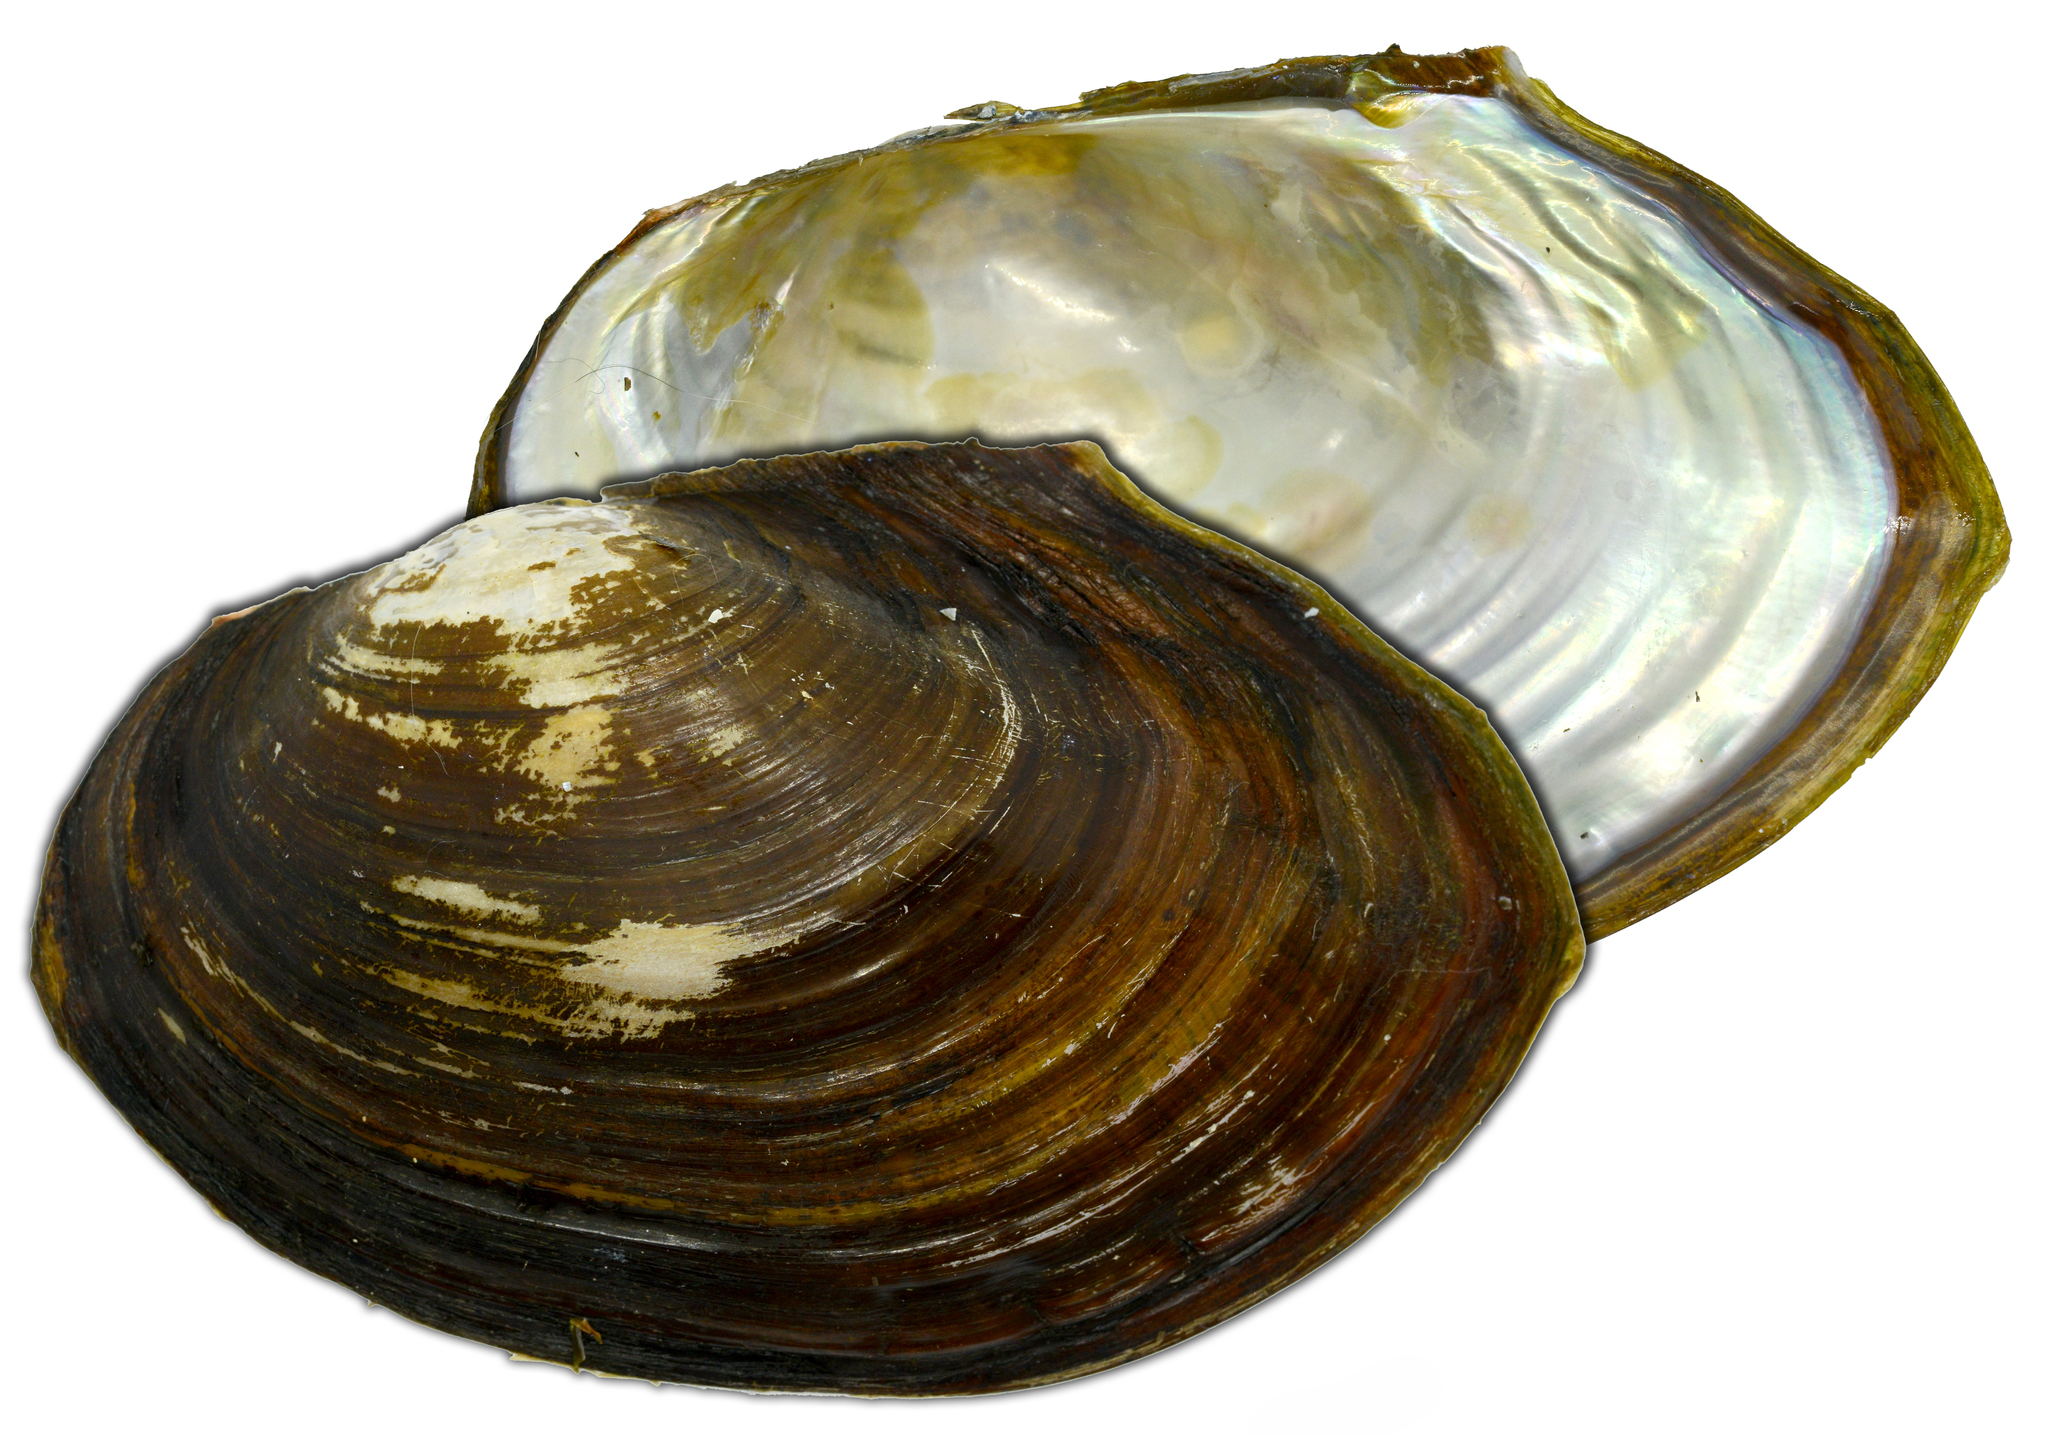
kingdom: Animalia
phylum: Mollusca
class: Bivalvia
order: Unionida
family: Unionidae
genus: Sinanodonta
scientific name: Sinanodonta lauta
